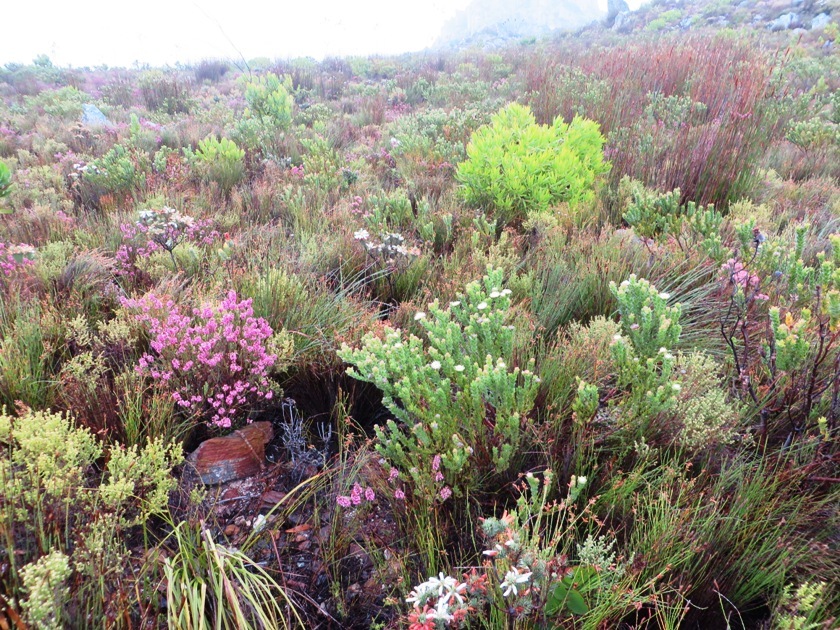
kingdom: Plantae
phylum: Tracheophyta
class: Magnoliopsida
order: Proteales
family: Proteaceae
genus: Diastella
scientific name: Diastella thymelaeoides
